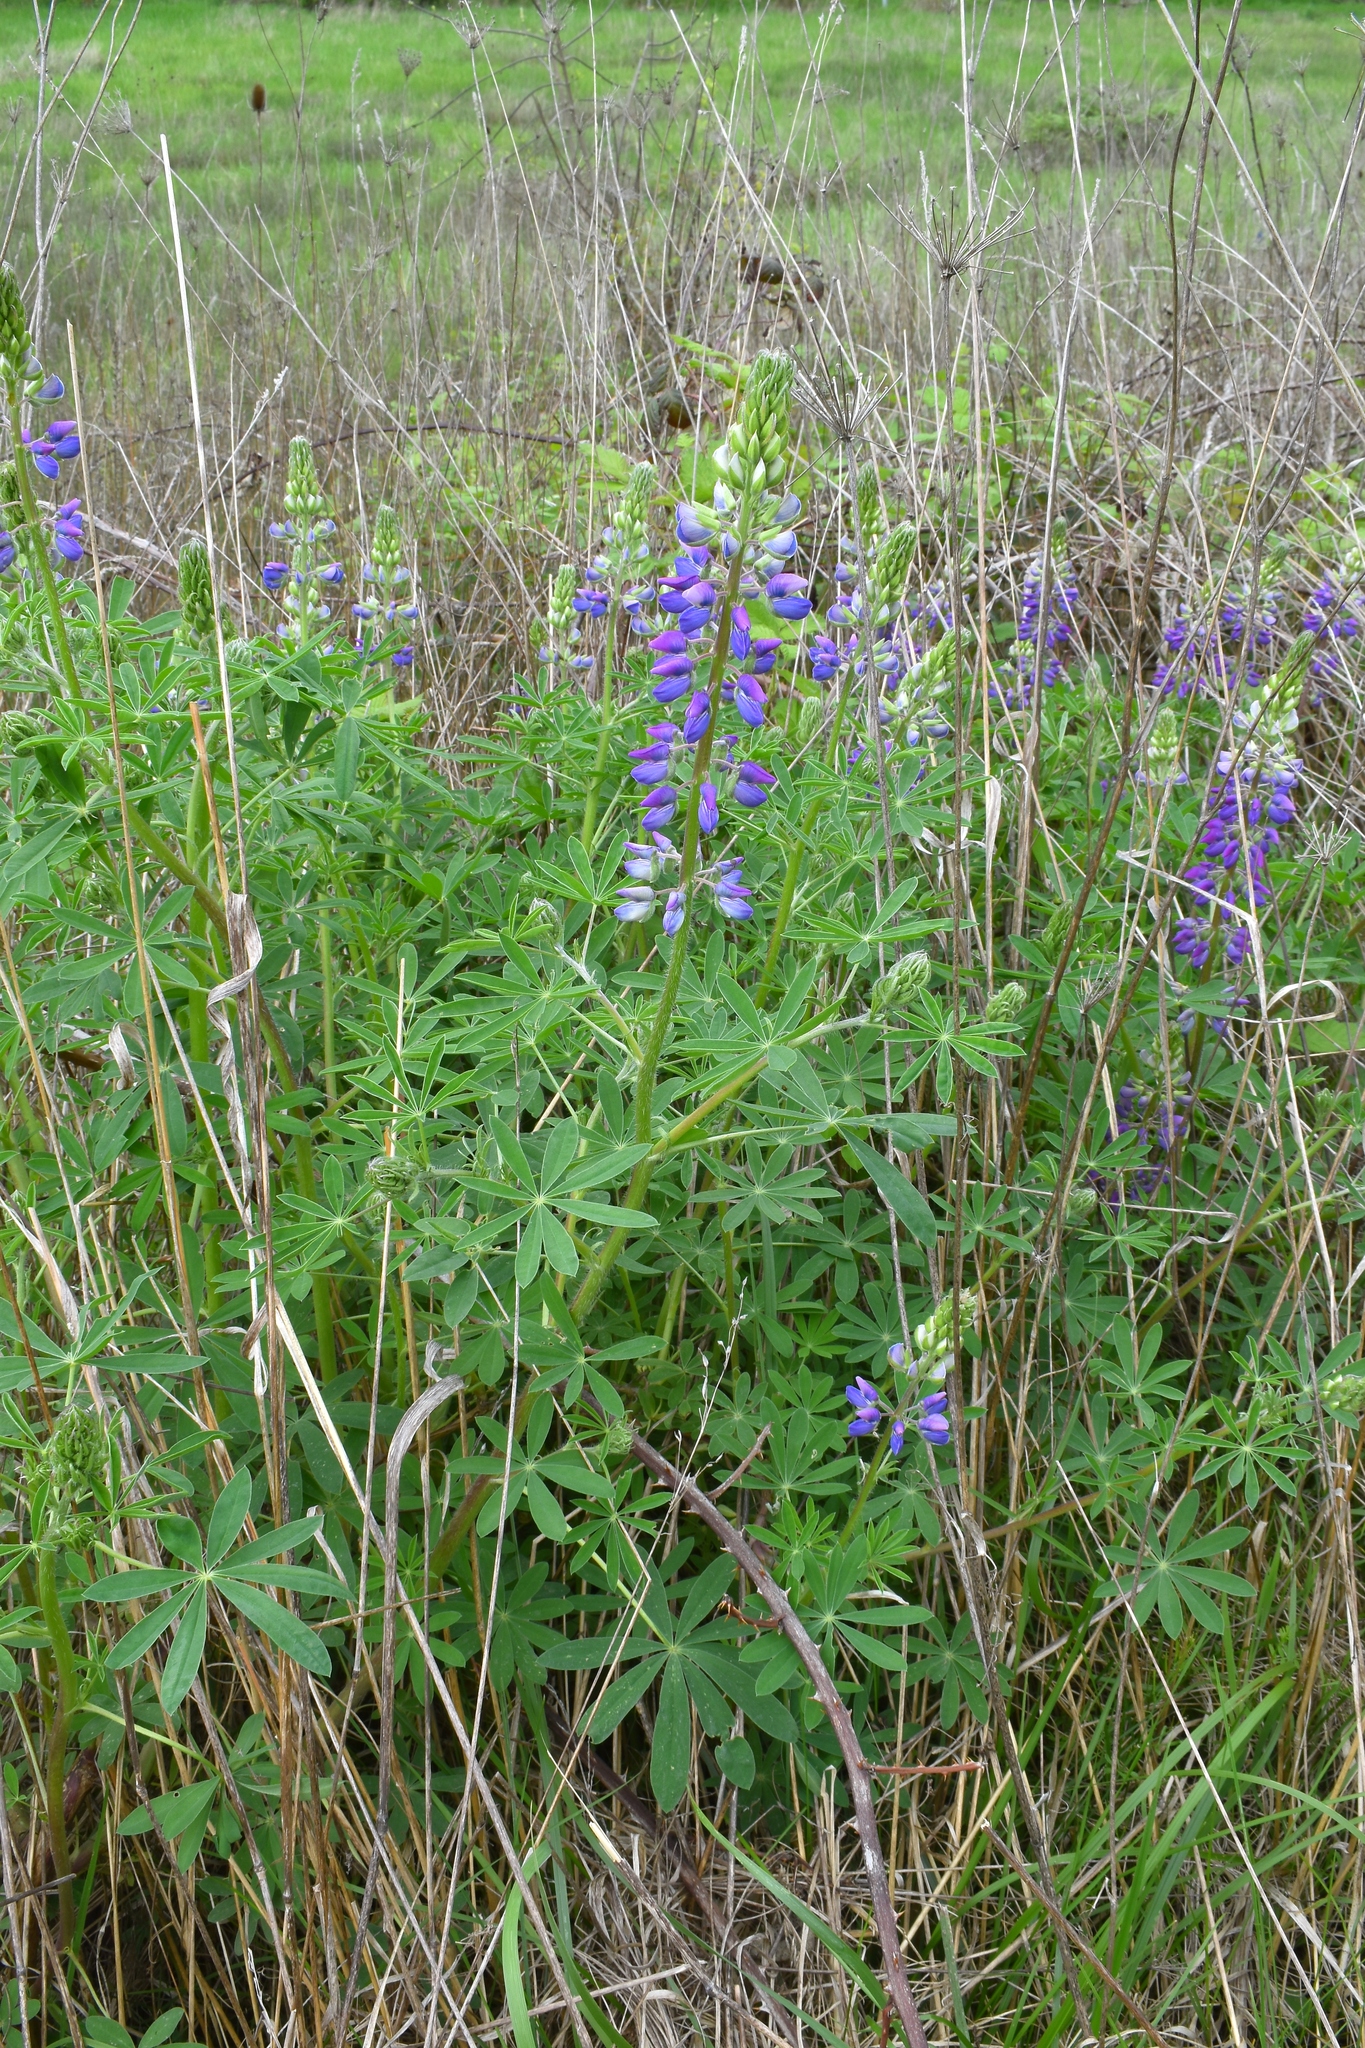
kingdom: Plantae
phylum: Tracheophyta
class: Magnoliopsida
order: Fabales
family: Fabaceae
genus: Lupinus
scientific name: Lupinus rivularis
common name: Riverbank lupine
